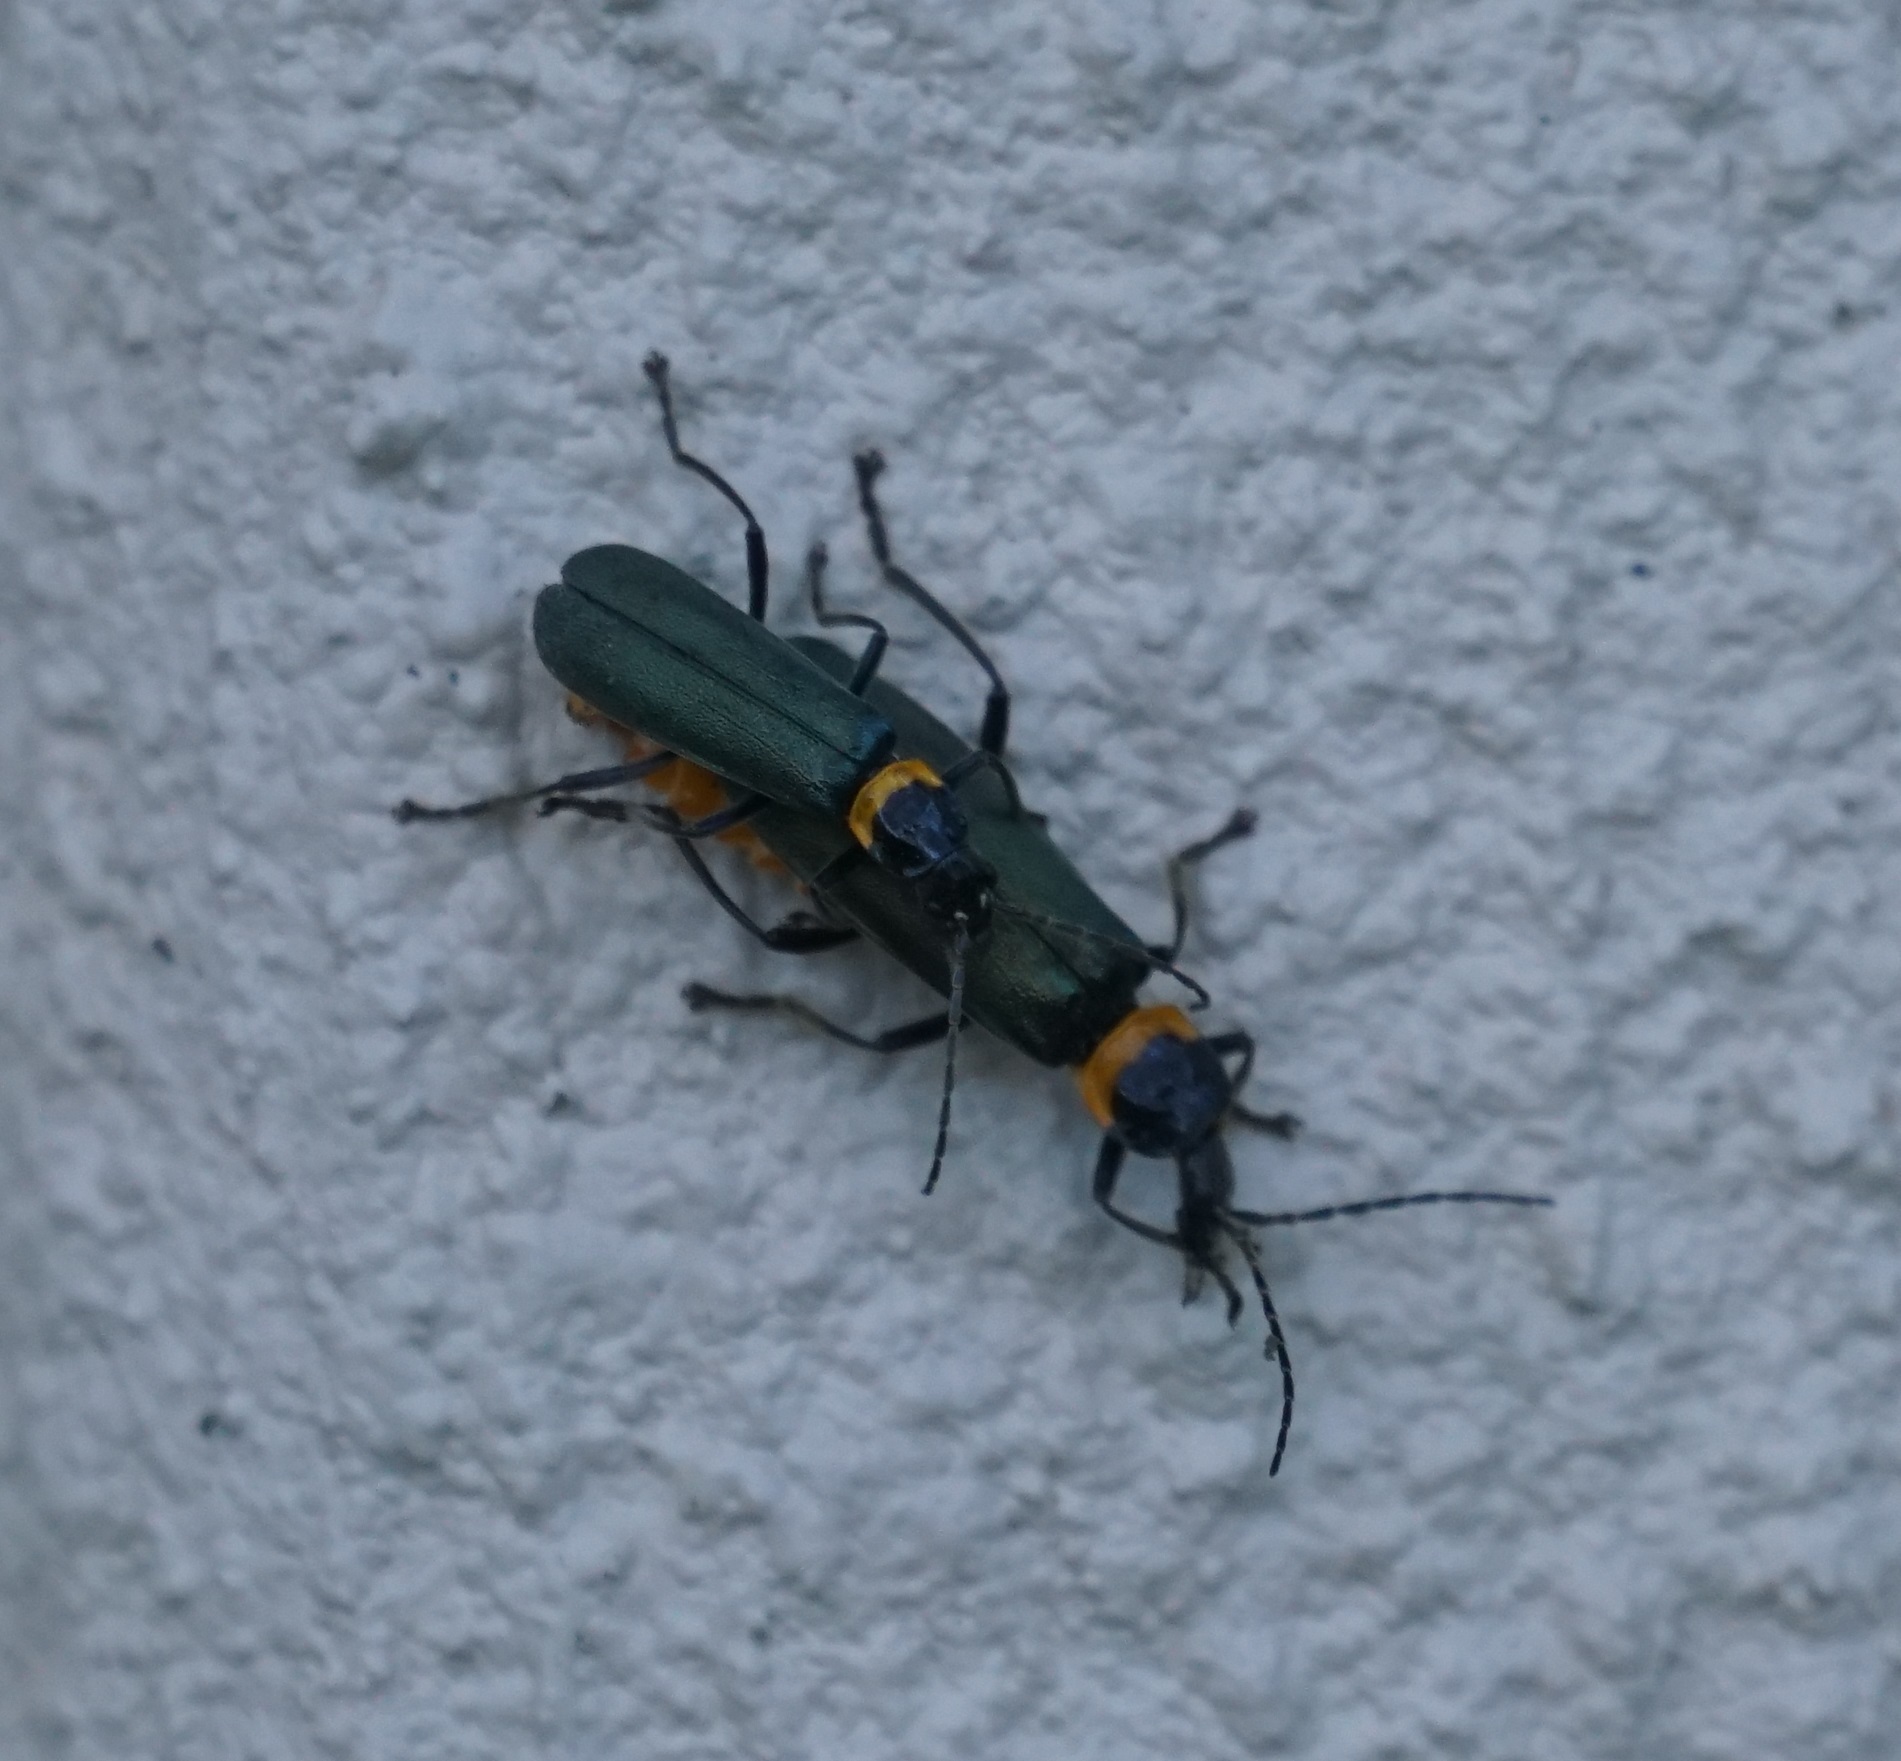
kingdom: Animalia
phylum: Arthropoda
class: Insecta
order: Coleoptera
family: Cantharidae
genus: Chauliognathus
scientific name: Chauliognathus
